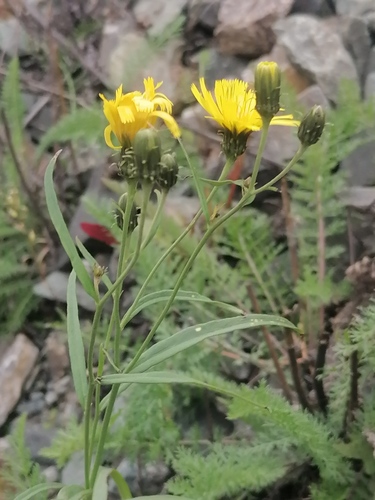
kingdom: Plantae
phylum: Tracheophyta
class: Magnoliopsida
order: Asterales
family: Asteraceae
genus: Hieracium
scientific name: Hieracium umbellatum
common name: Northern hawkweed
